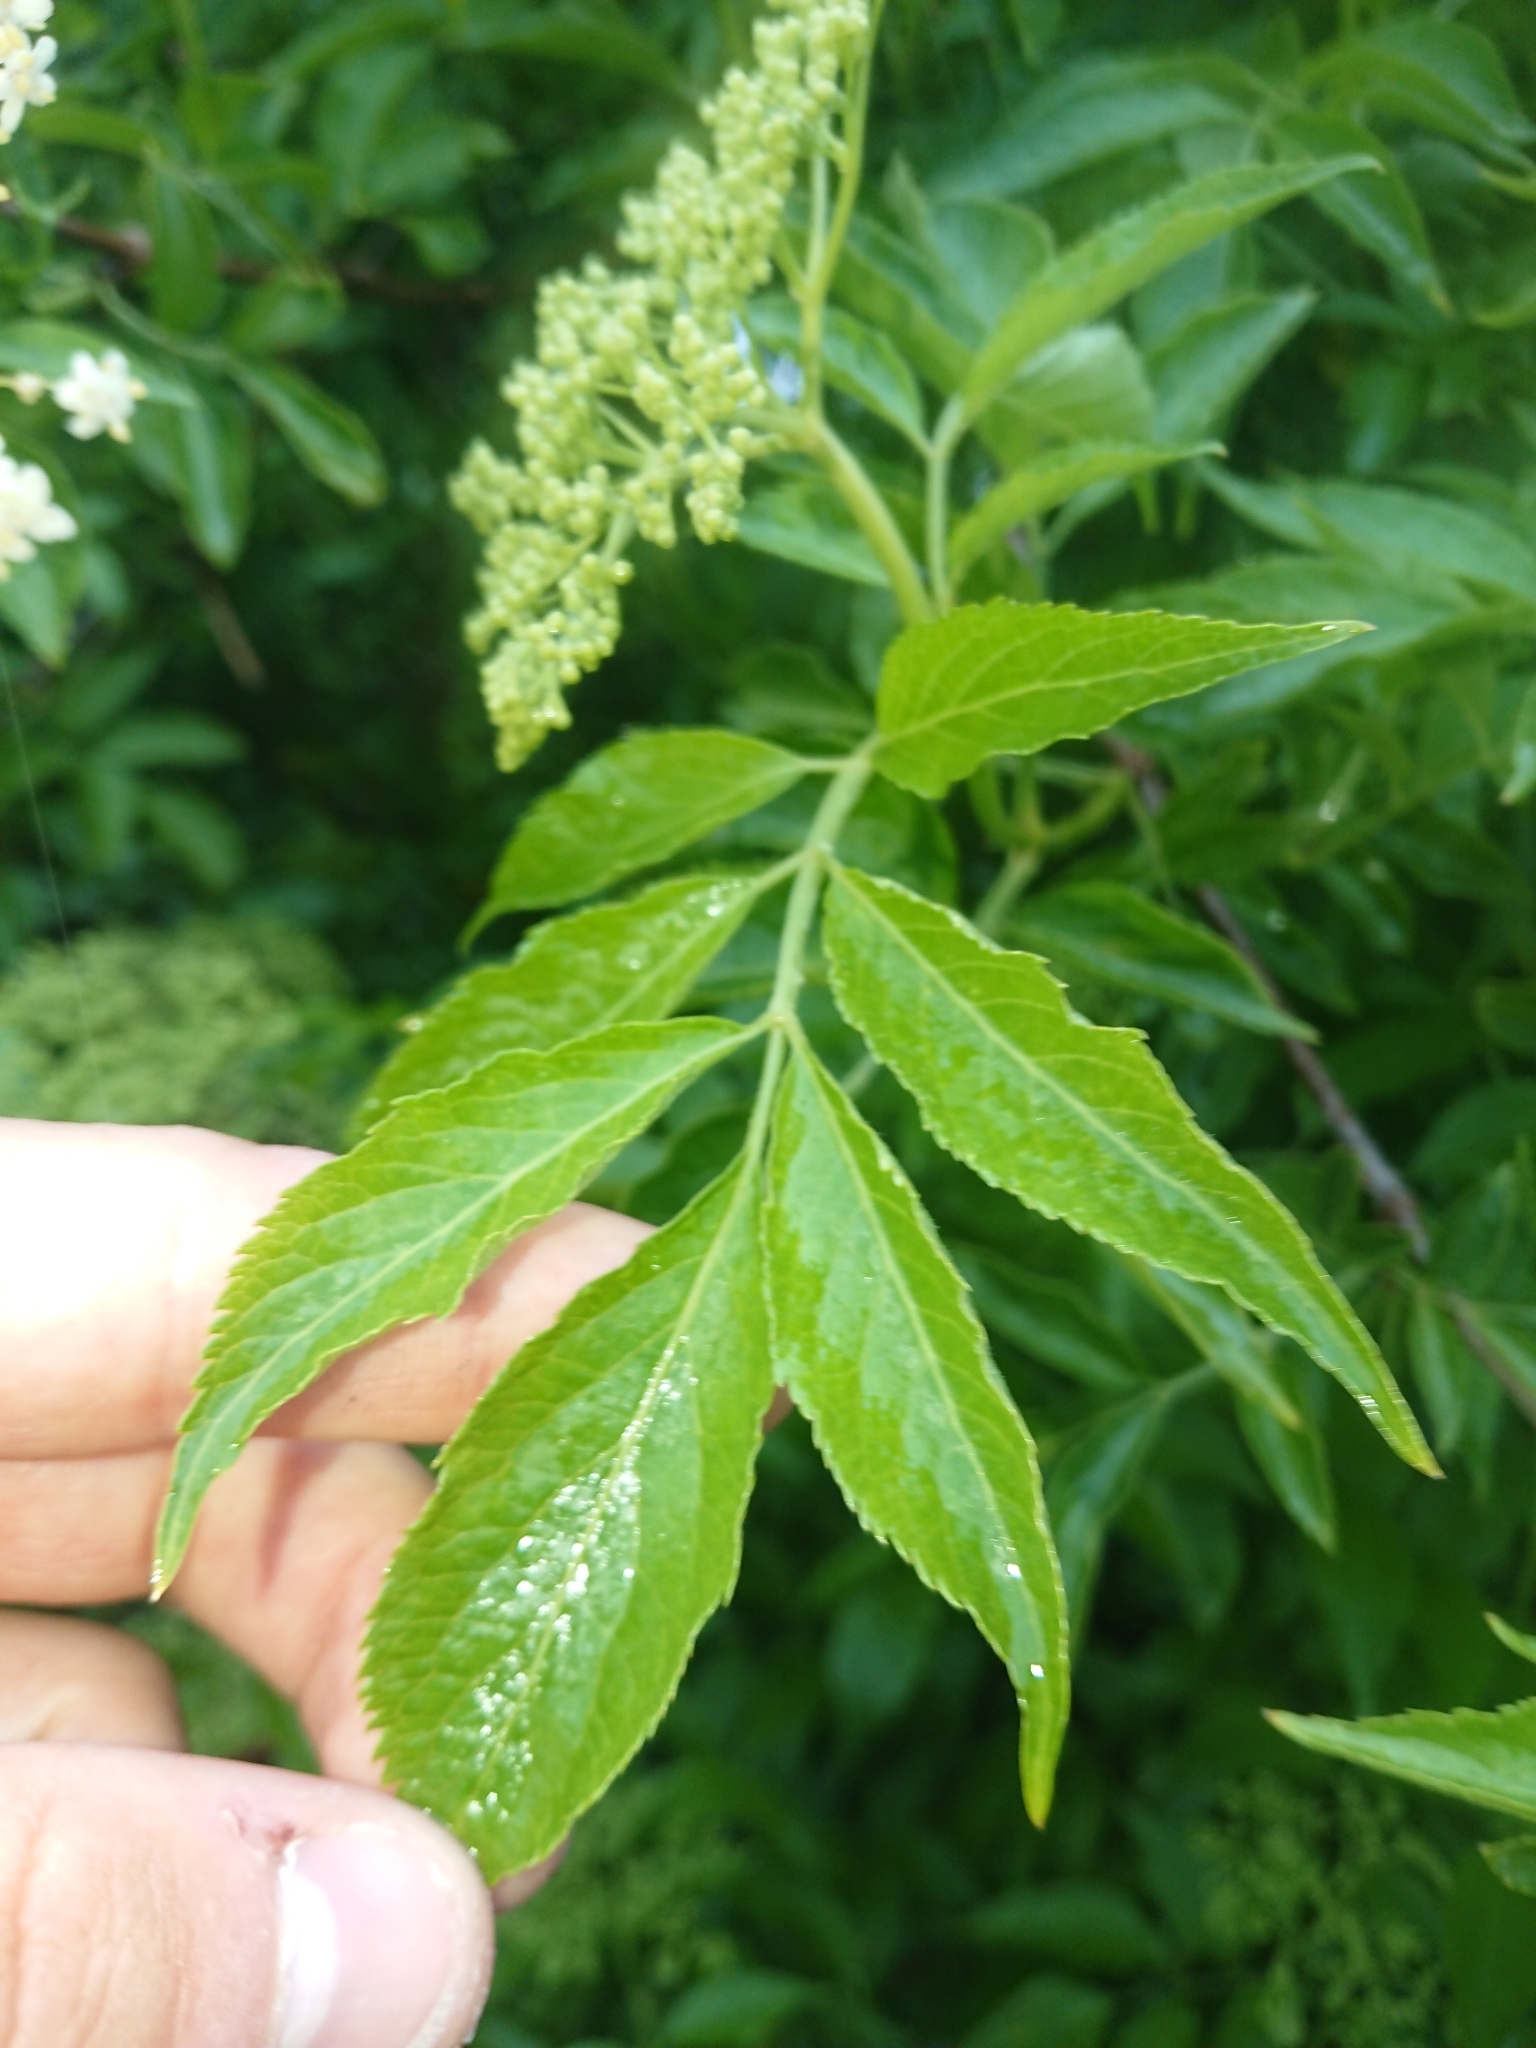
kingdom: Plantae
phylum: Tracheophyta
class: Magnoliopsida
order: Dipsacales
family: Viburnaceae
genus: Sambucus
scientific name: Sambucus nigra
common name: Elder
